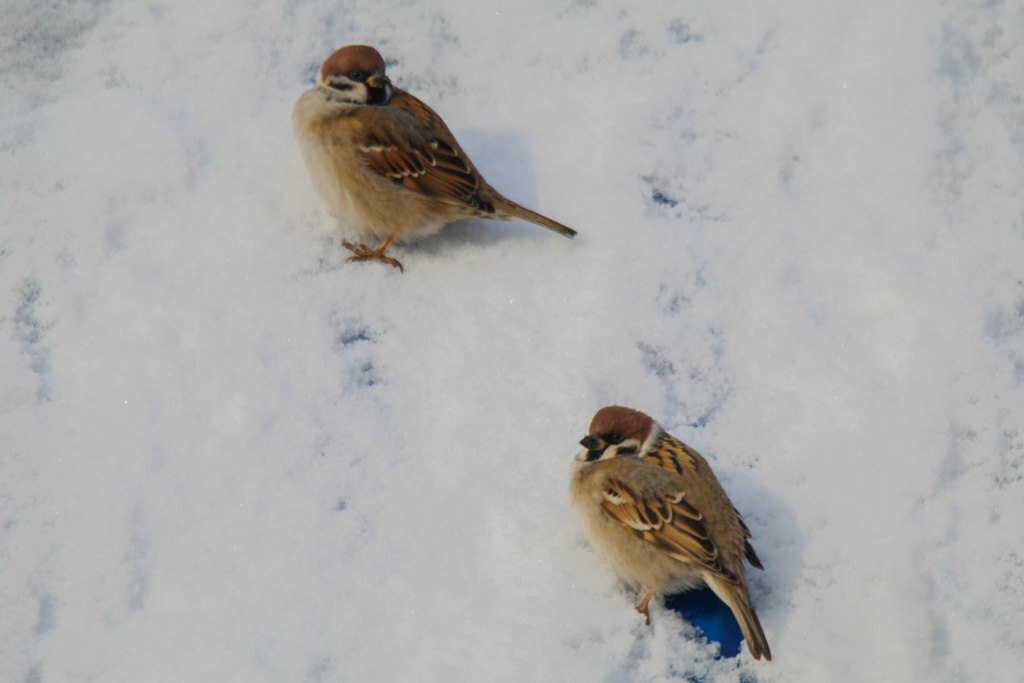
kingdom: Animalia
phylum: Chordata
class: Aves
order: Passeriformes
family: Passeridae
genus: Passer
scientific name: Passer montanus
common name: Eurasian tree sparrow
